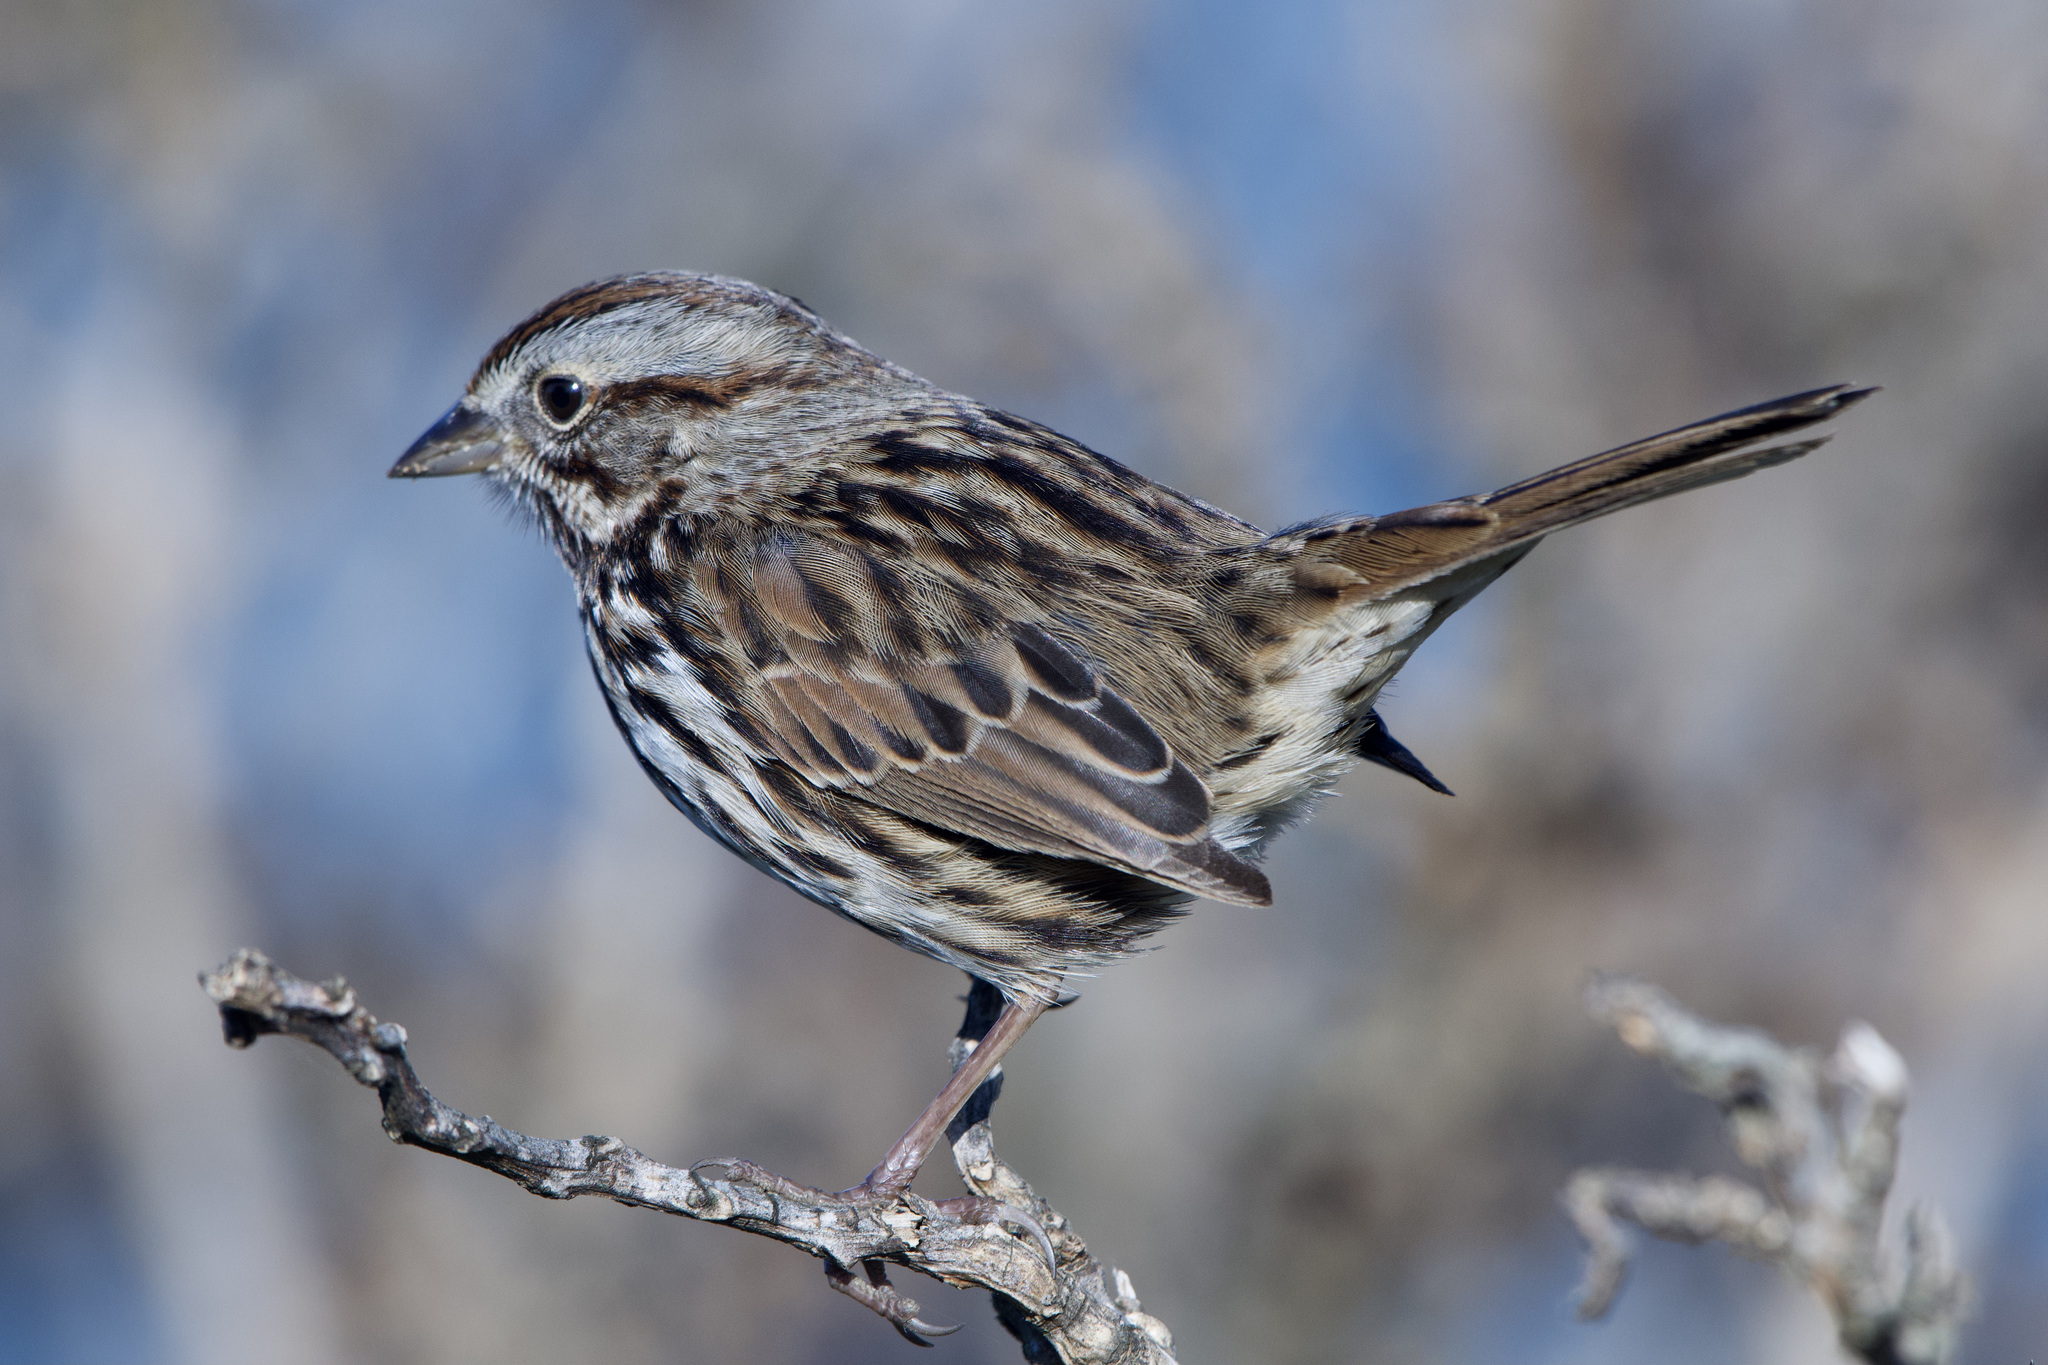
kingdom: Animalia
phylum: Chordata
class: Aves
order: Passeriformes
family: Passerellidae
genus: Melospiza
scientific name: Melospiza melodia
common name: Song sparrow
